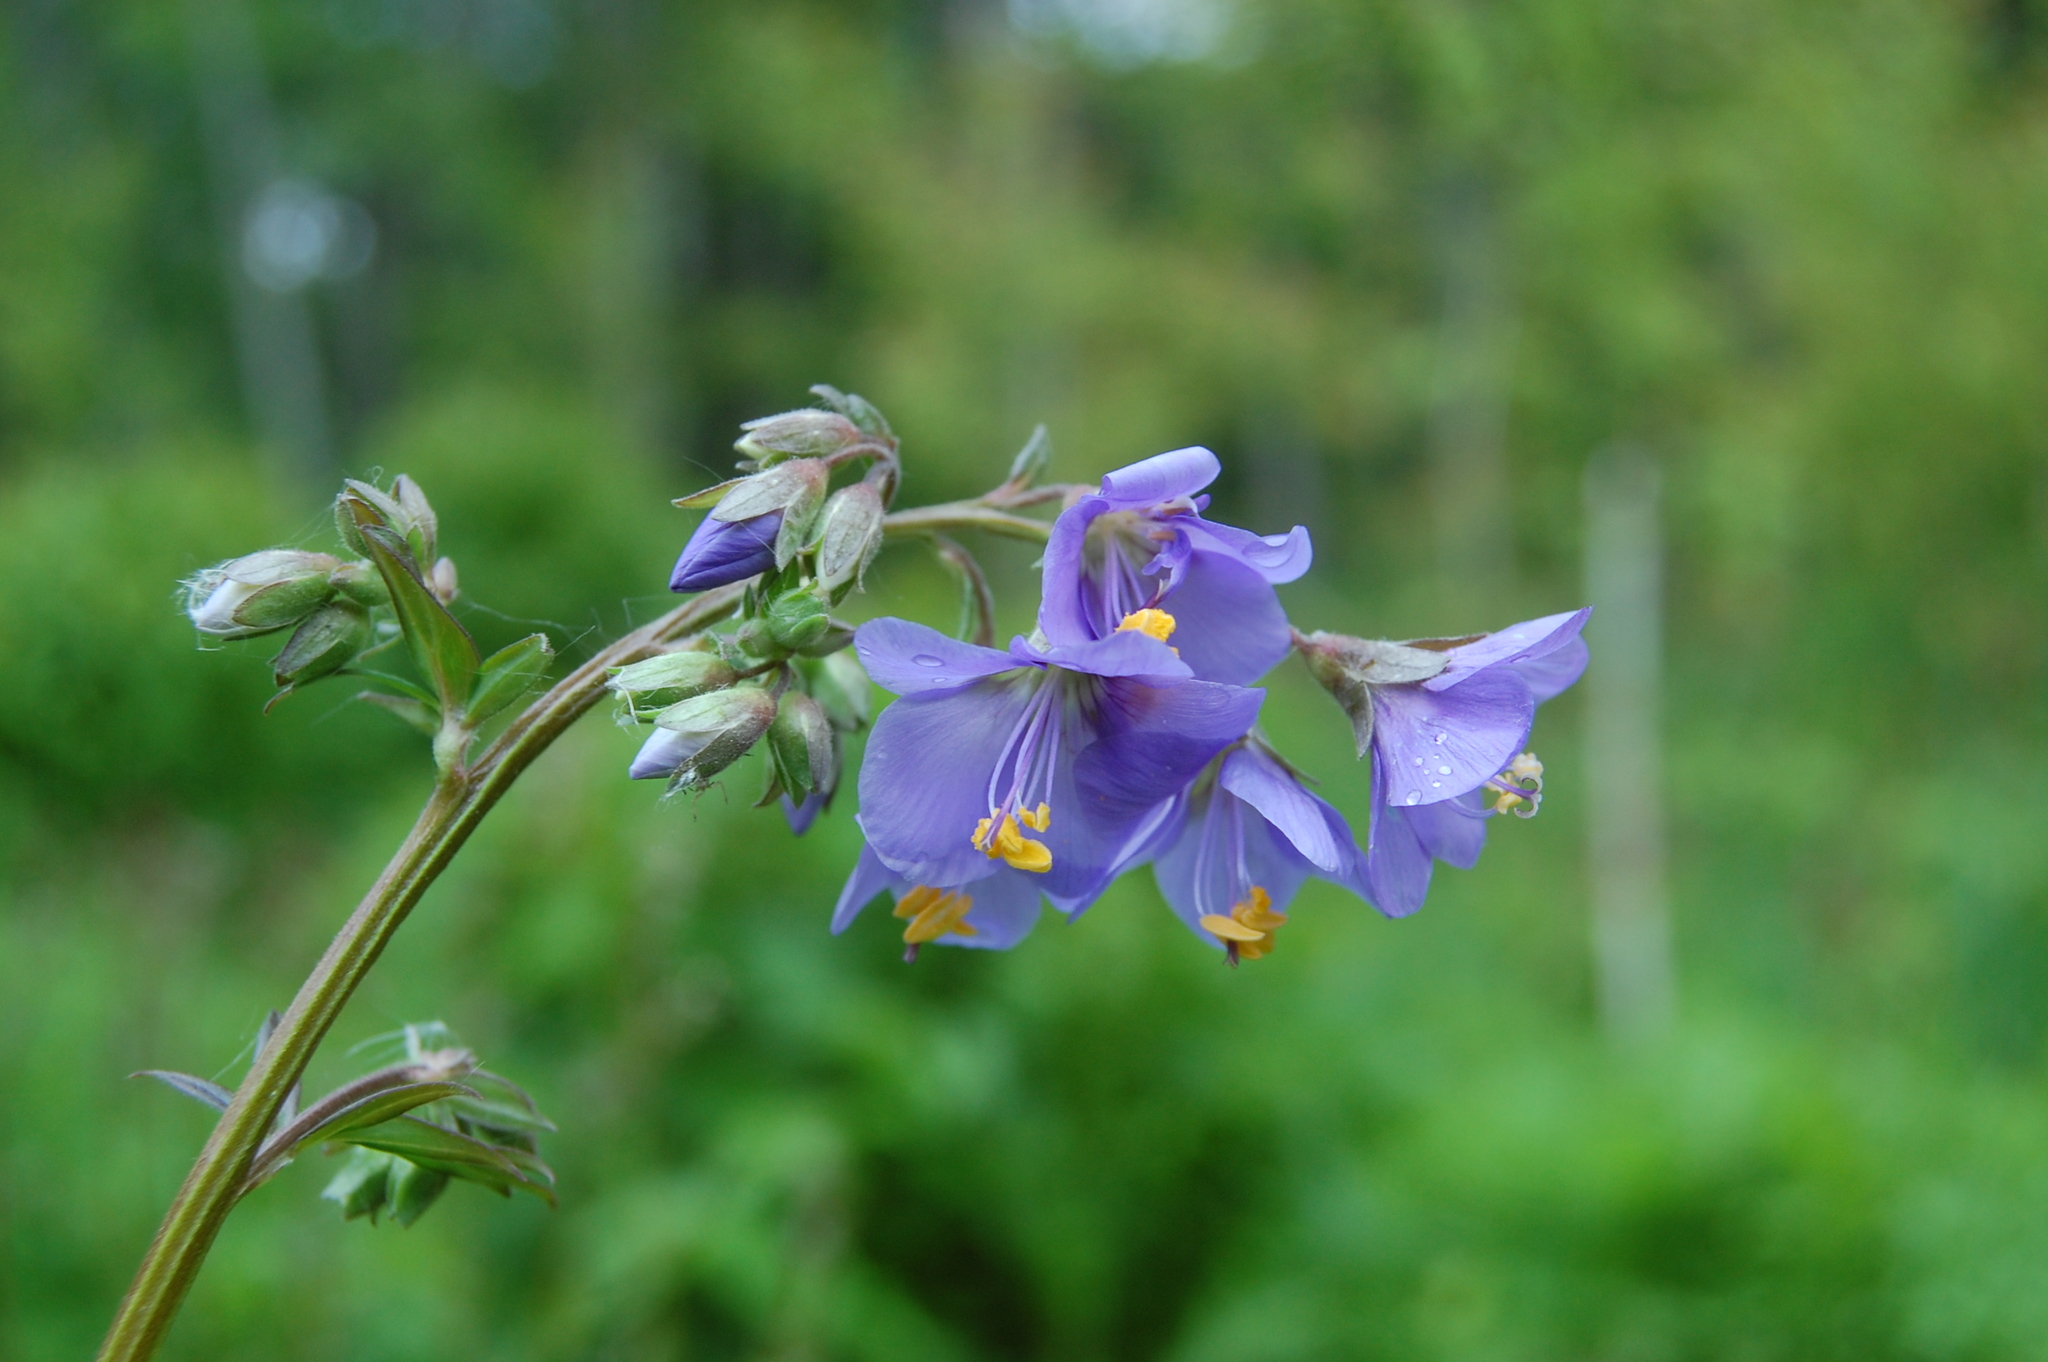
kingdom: Plantae
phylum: Tracheophyta
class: Magnoliopsida
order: Ericales
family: Polemoniaceae
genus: Polemonium
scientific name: Polemonium caeruleum
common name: Jacob's-ladder
